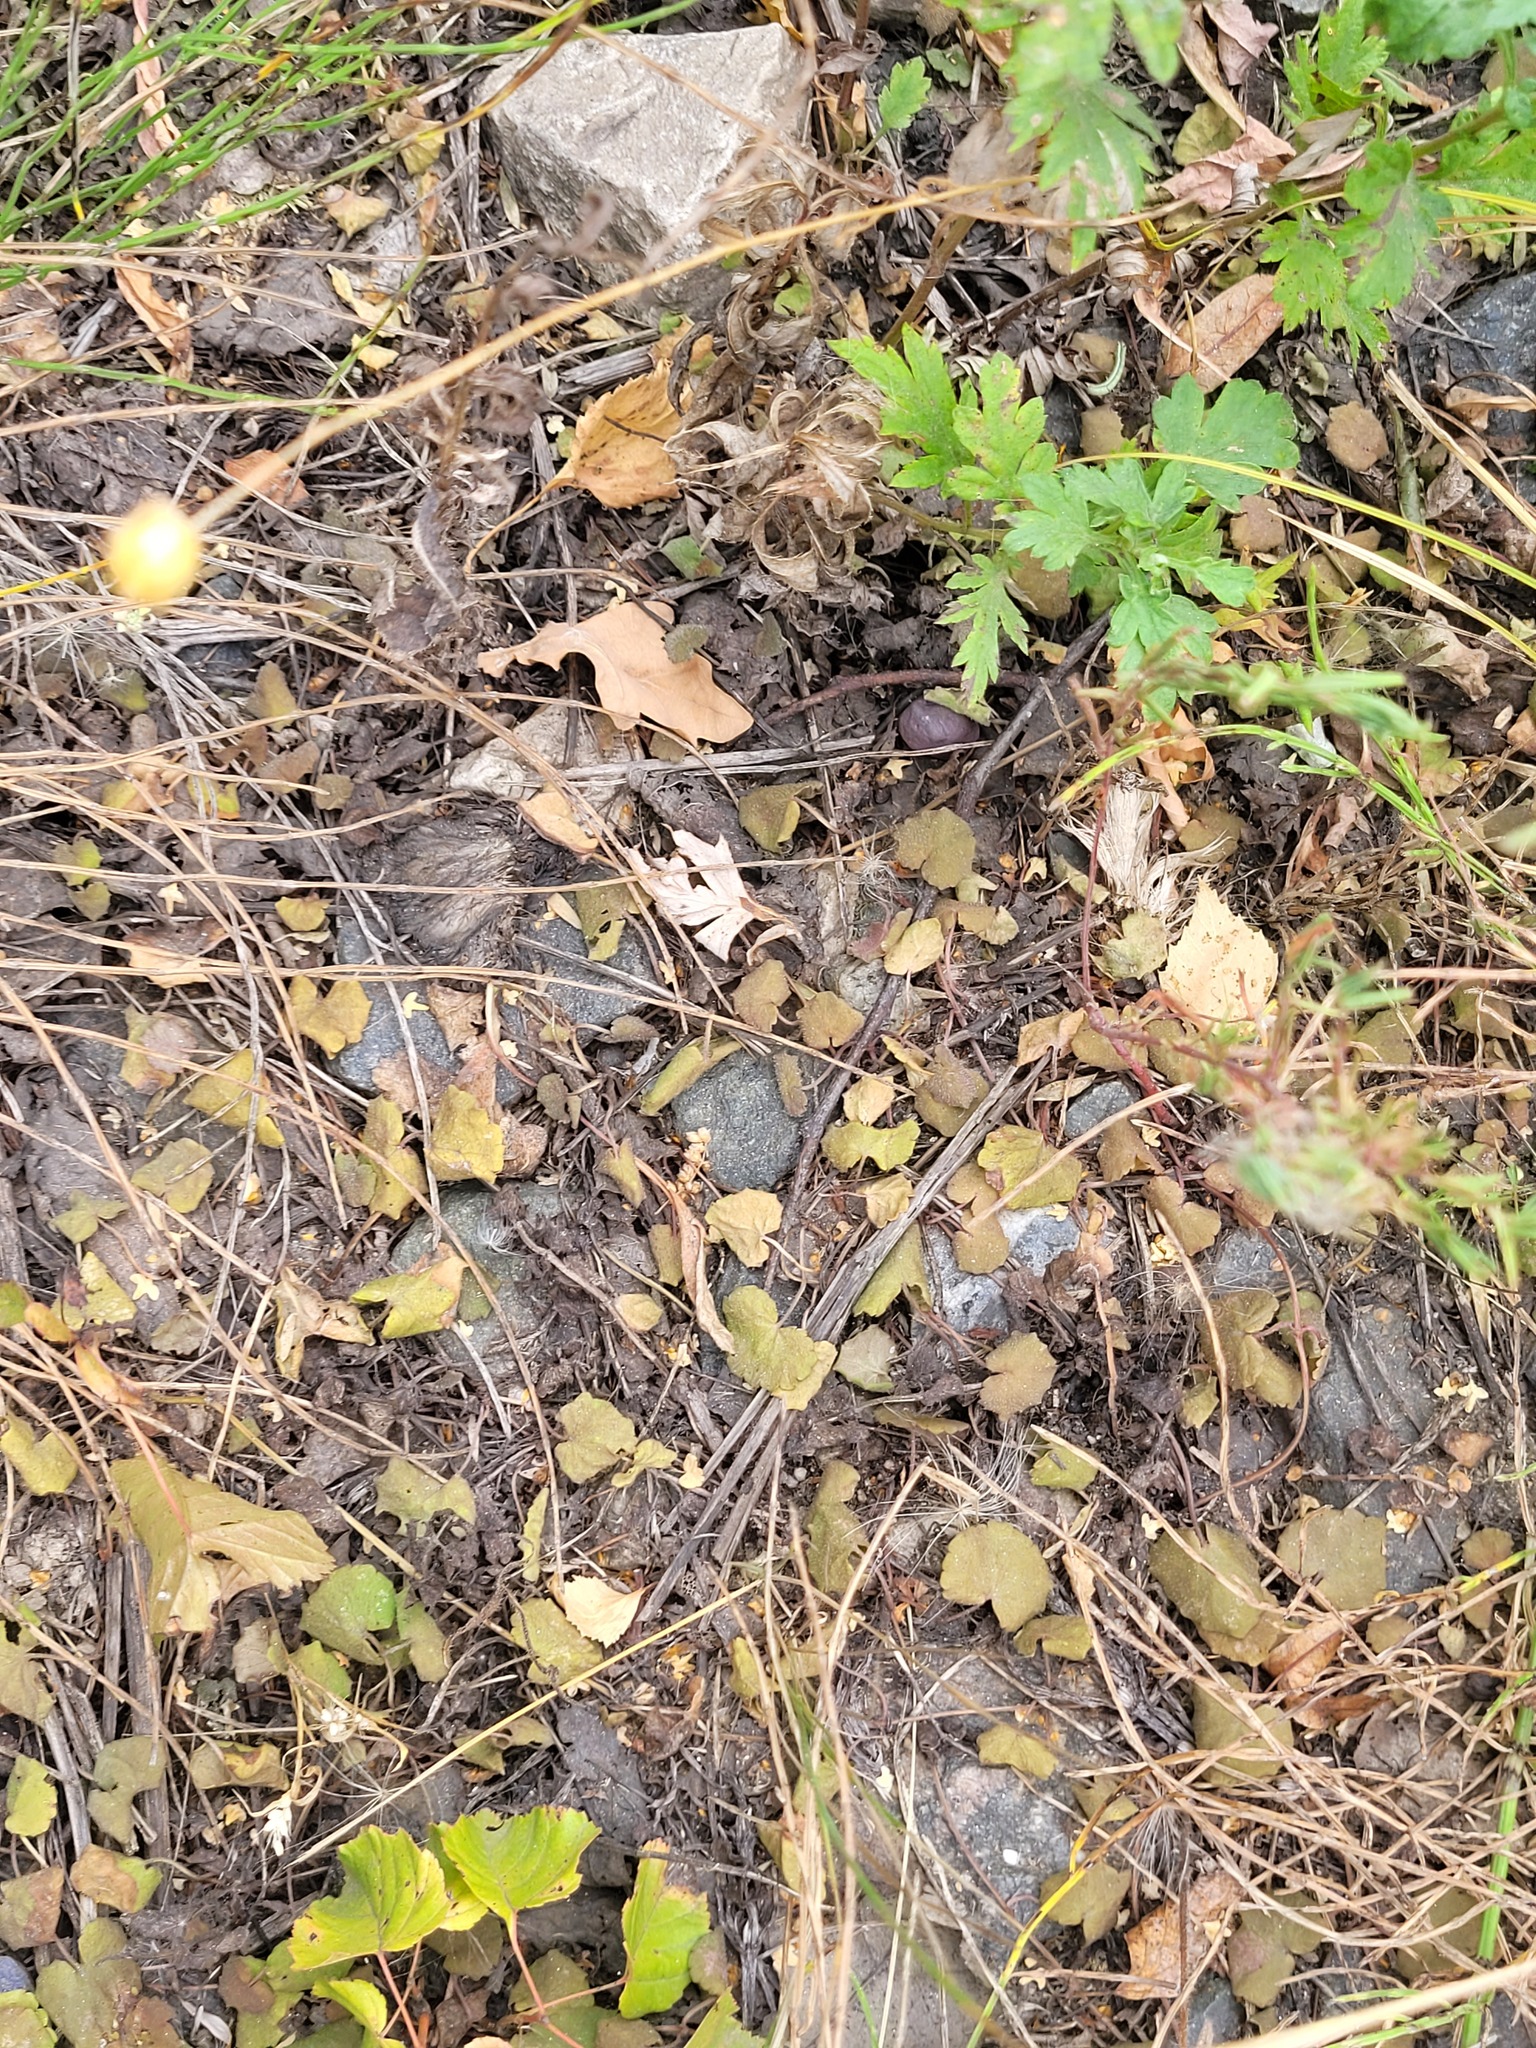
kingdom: Plantae
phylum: Tracheophyta
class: Magnoliopsida
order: Lamiales
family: Lamiaceae
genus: Glechoma
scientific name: Glechoma hederacea
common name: Ground ivy
